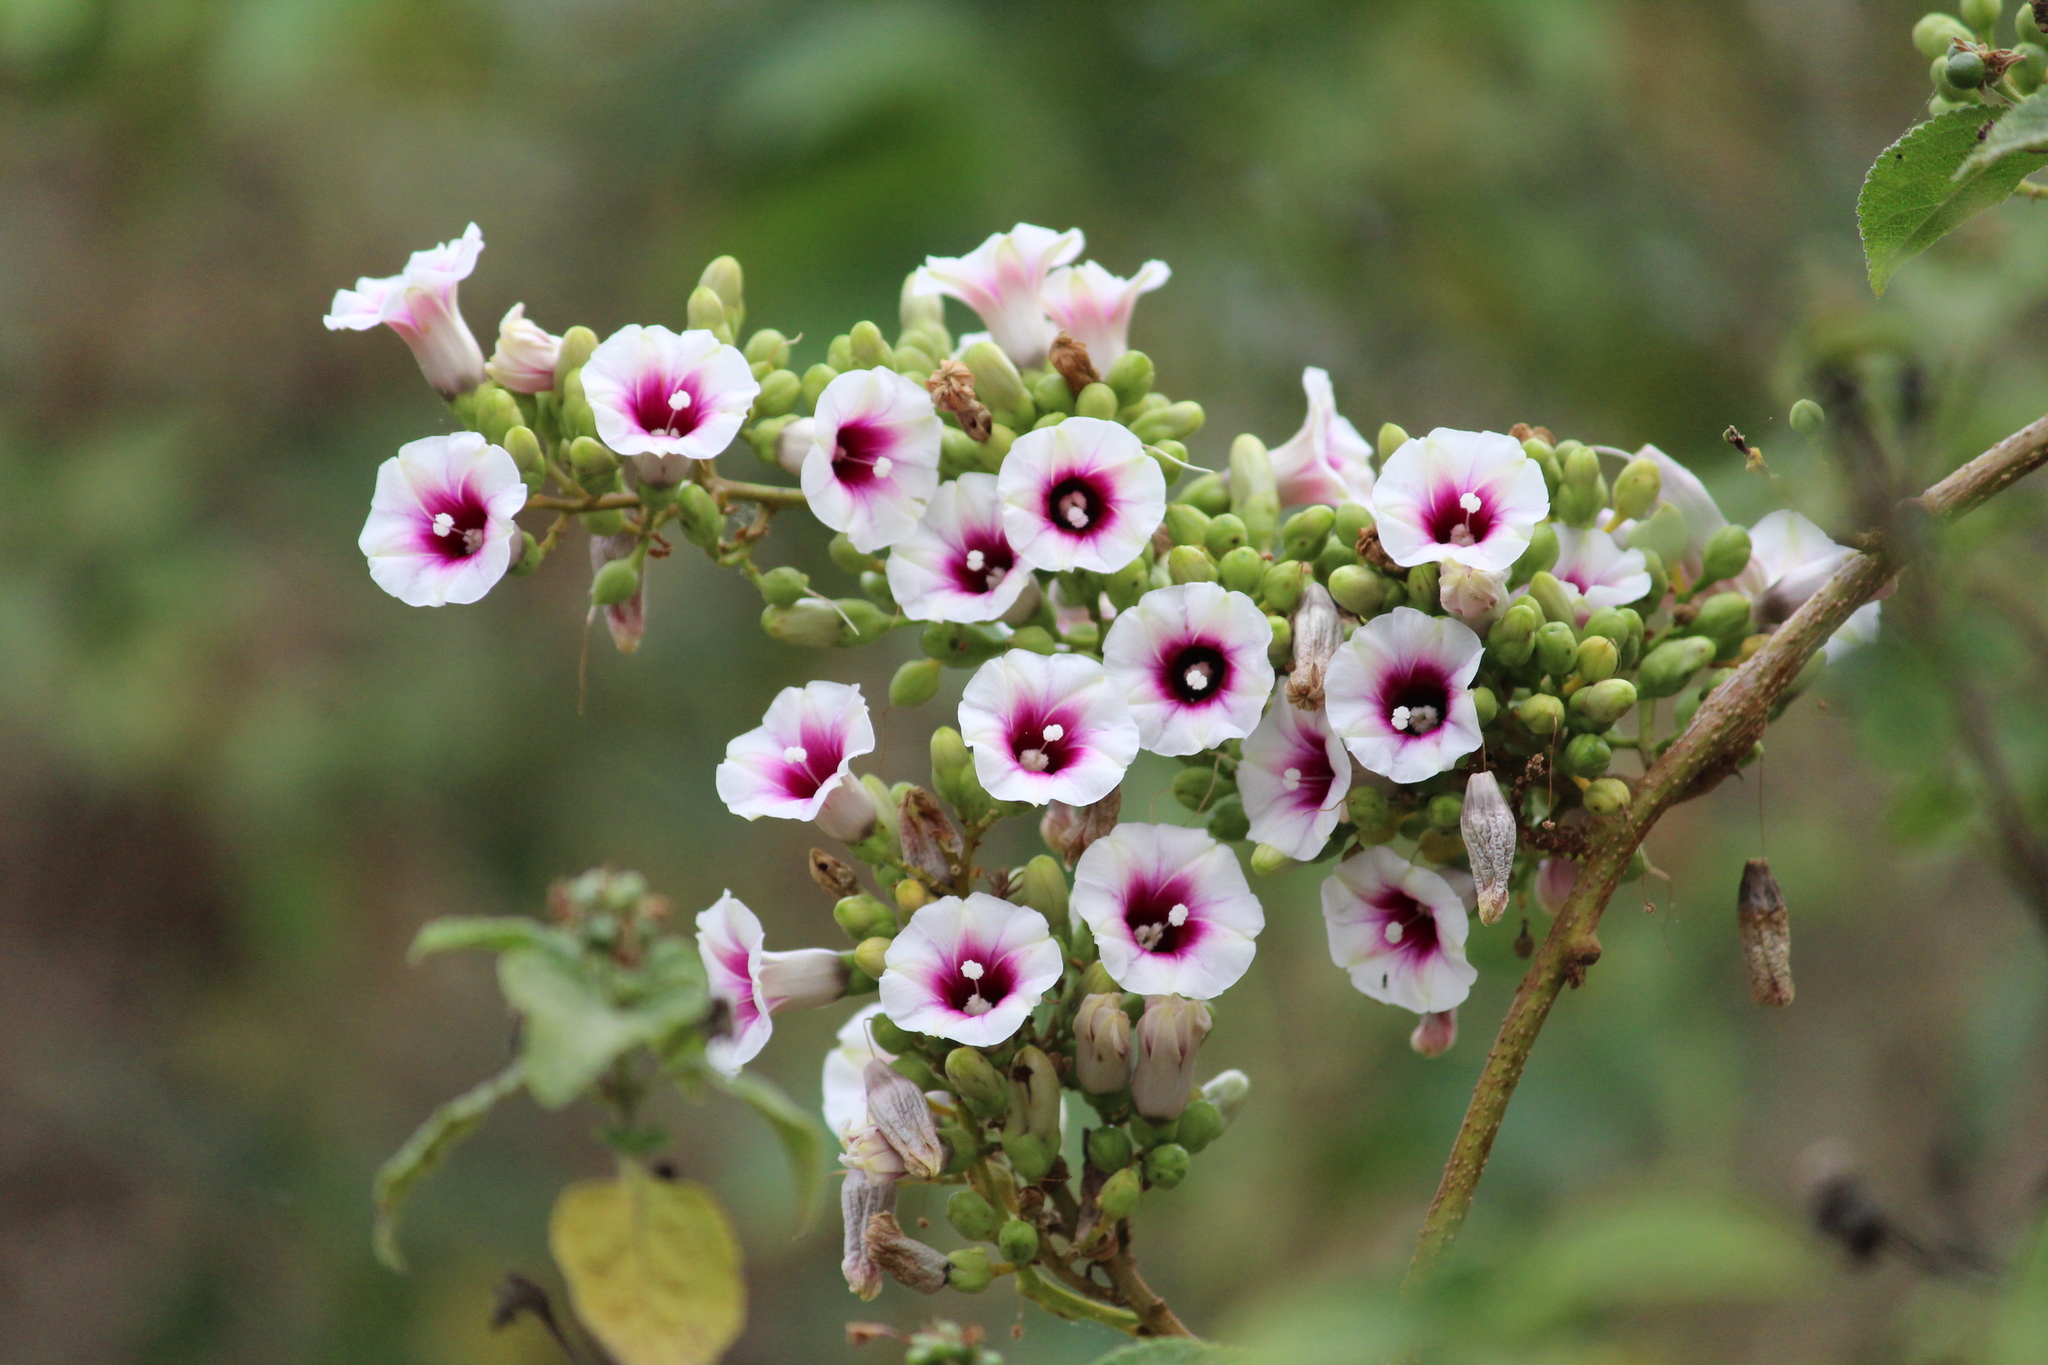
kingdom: Plantae
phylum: Tracheophyta
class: Magnoliopsida
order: Solanales
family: Convolvulaceae
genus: Ipomoea
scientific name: Ipomoea staphylina
